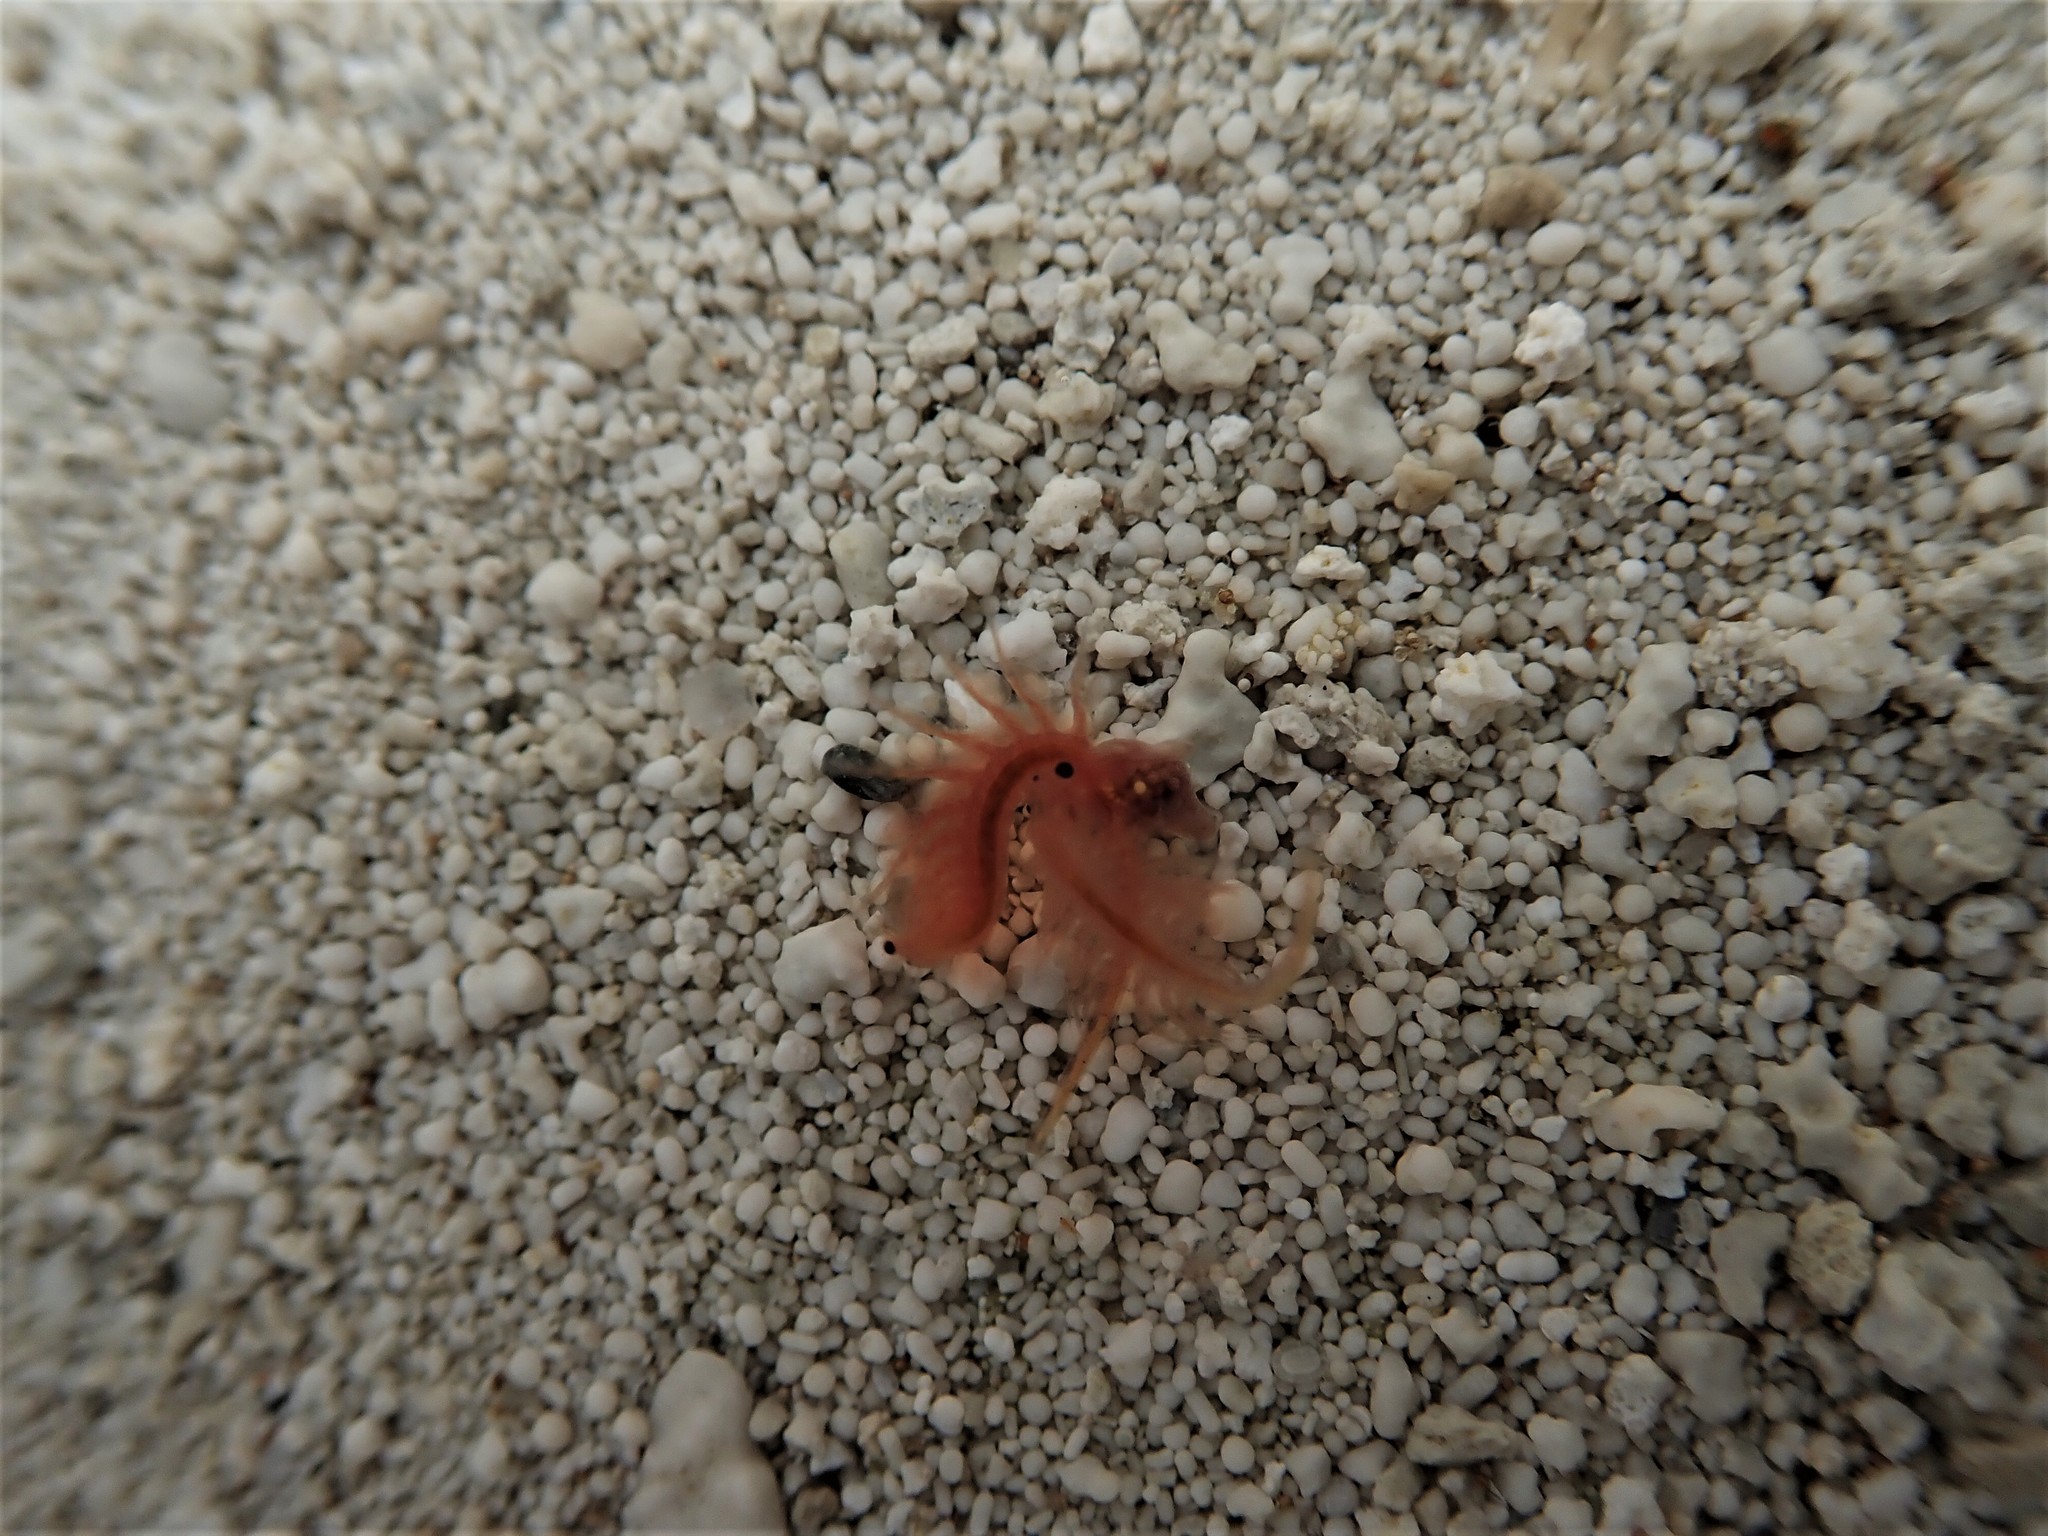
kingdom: Animalia
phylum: Arthropoda
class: Branchiopoda
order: Anostraca
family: Artemiidae
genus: Artemia
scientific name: Artemia monica
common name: Mono lake brine shrimp
